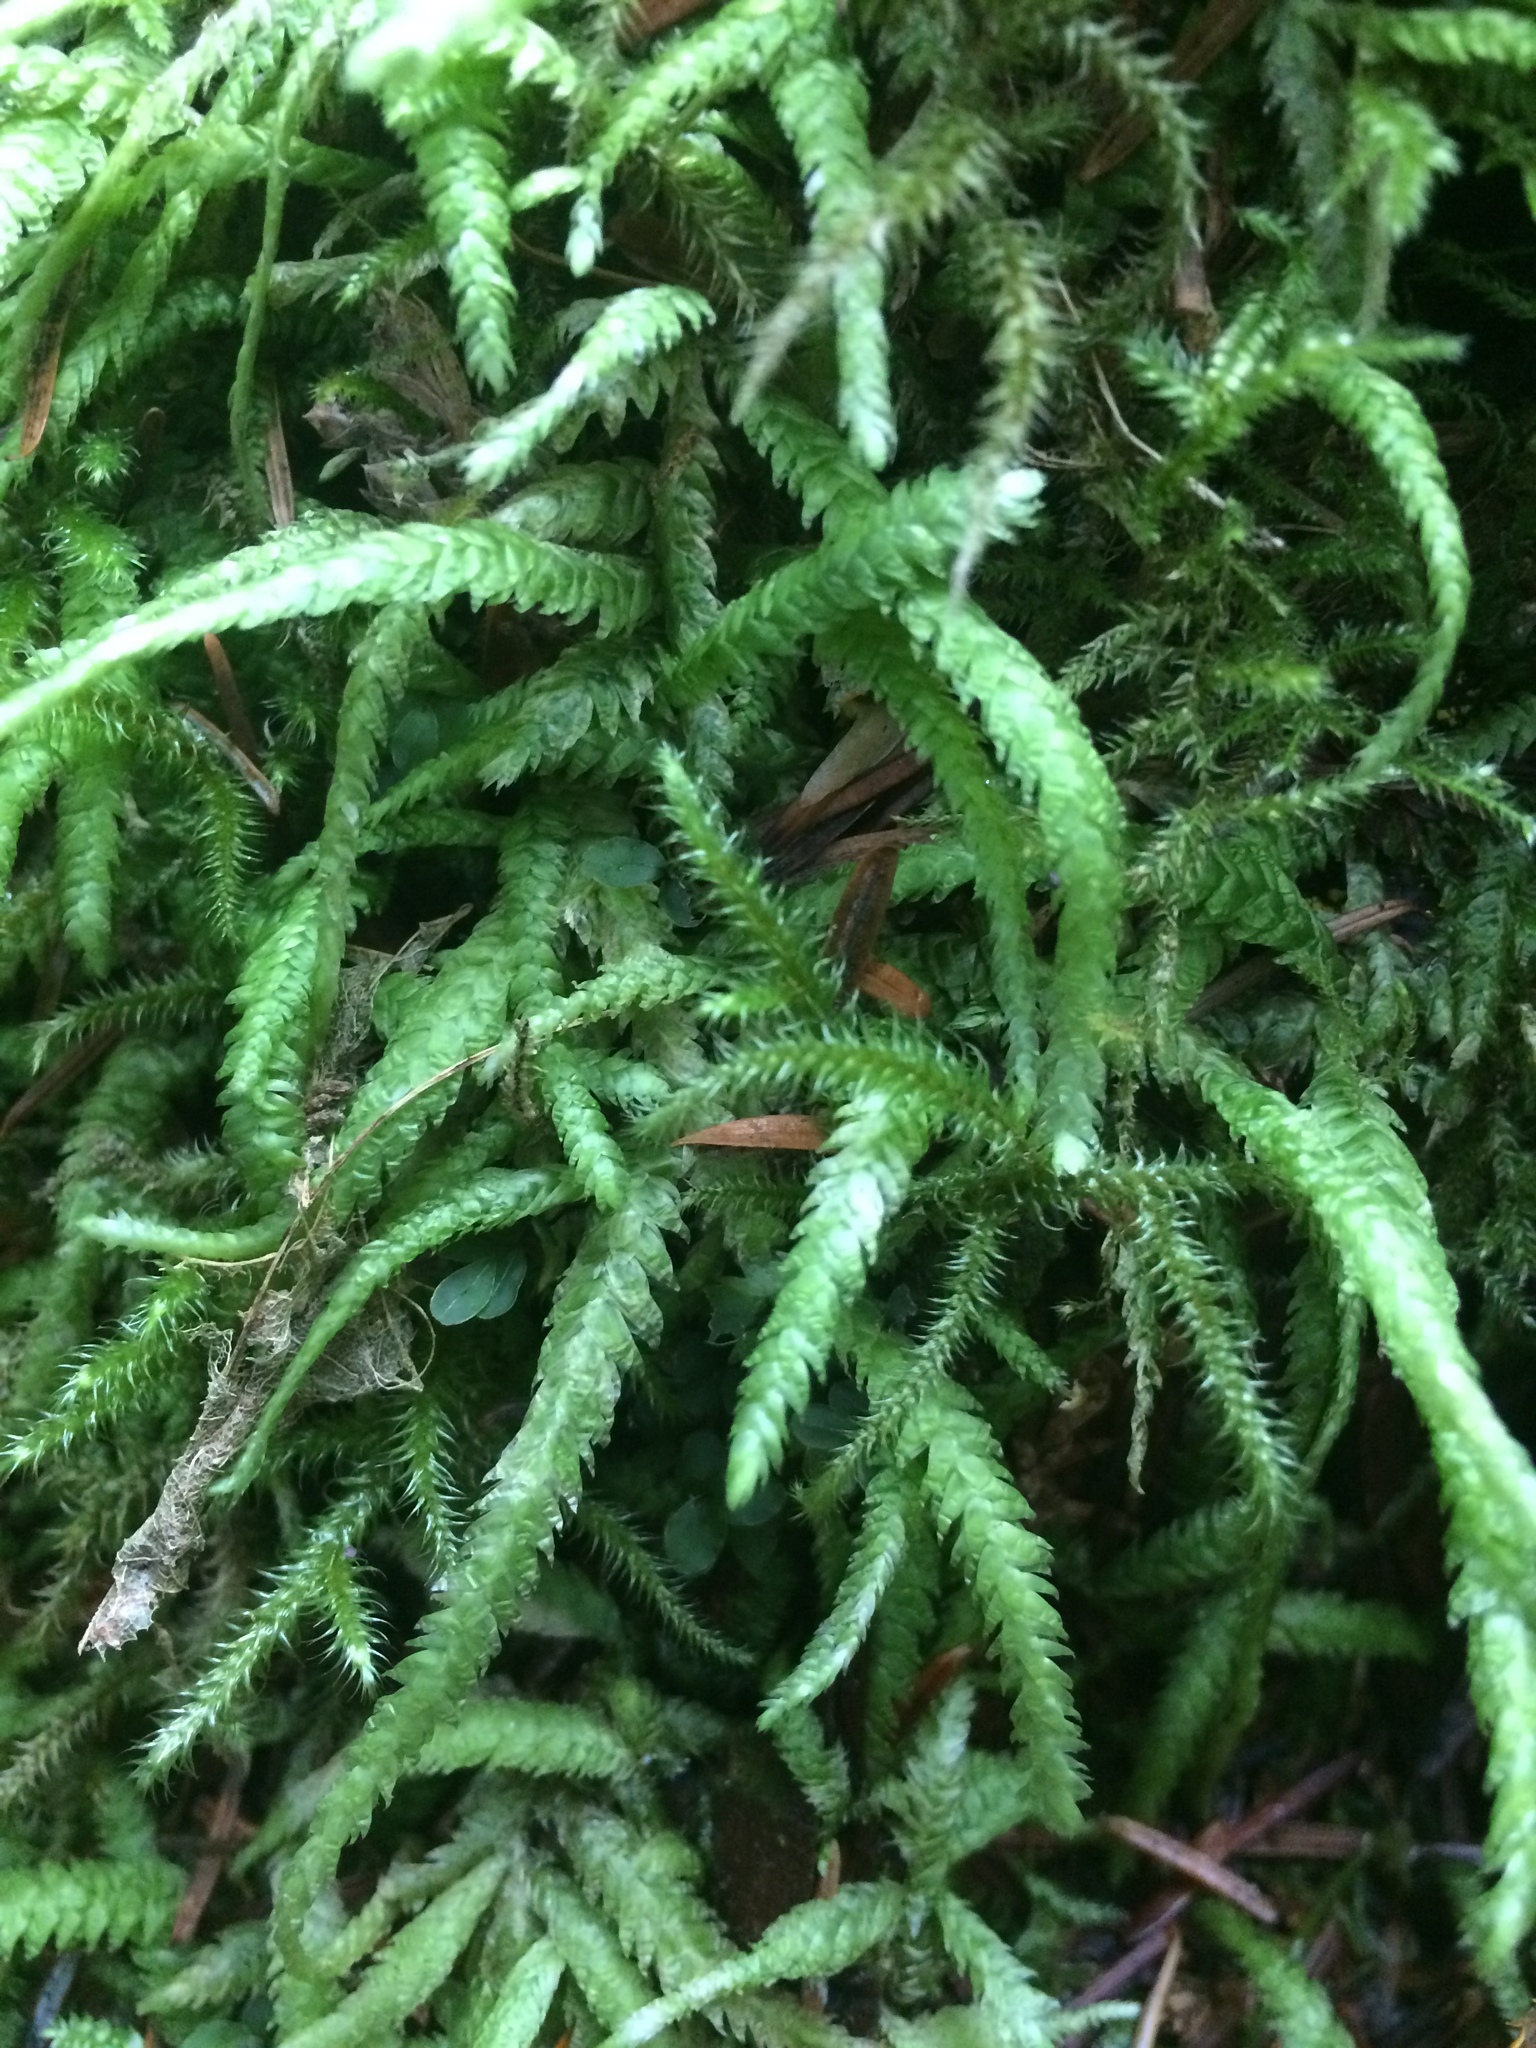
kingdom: Plantae
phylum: Bryophyta
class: Bryopsida
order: Hypnales
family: Plagiotheciaceae
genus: Plagiothecium
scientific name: Plagiothecium undulatum
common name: Waved silk-moss
